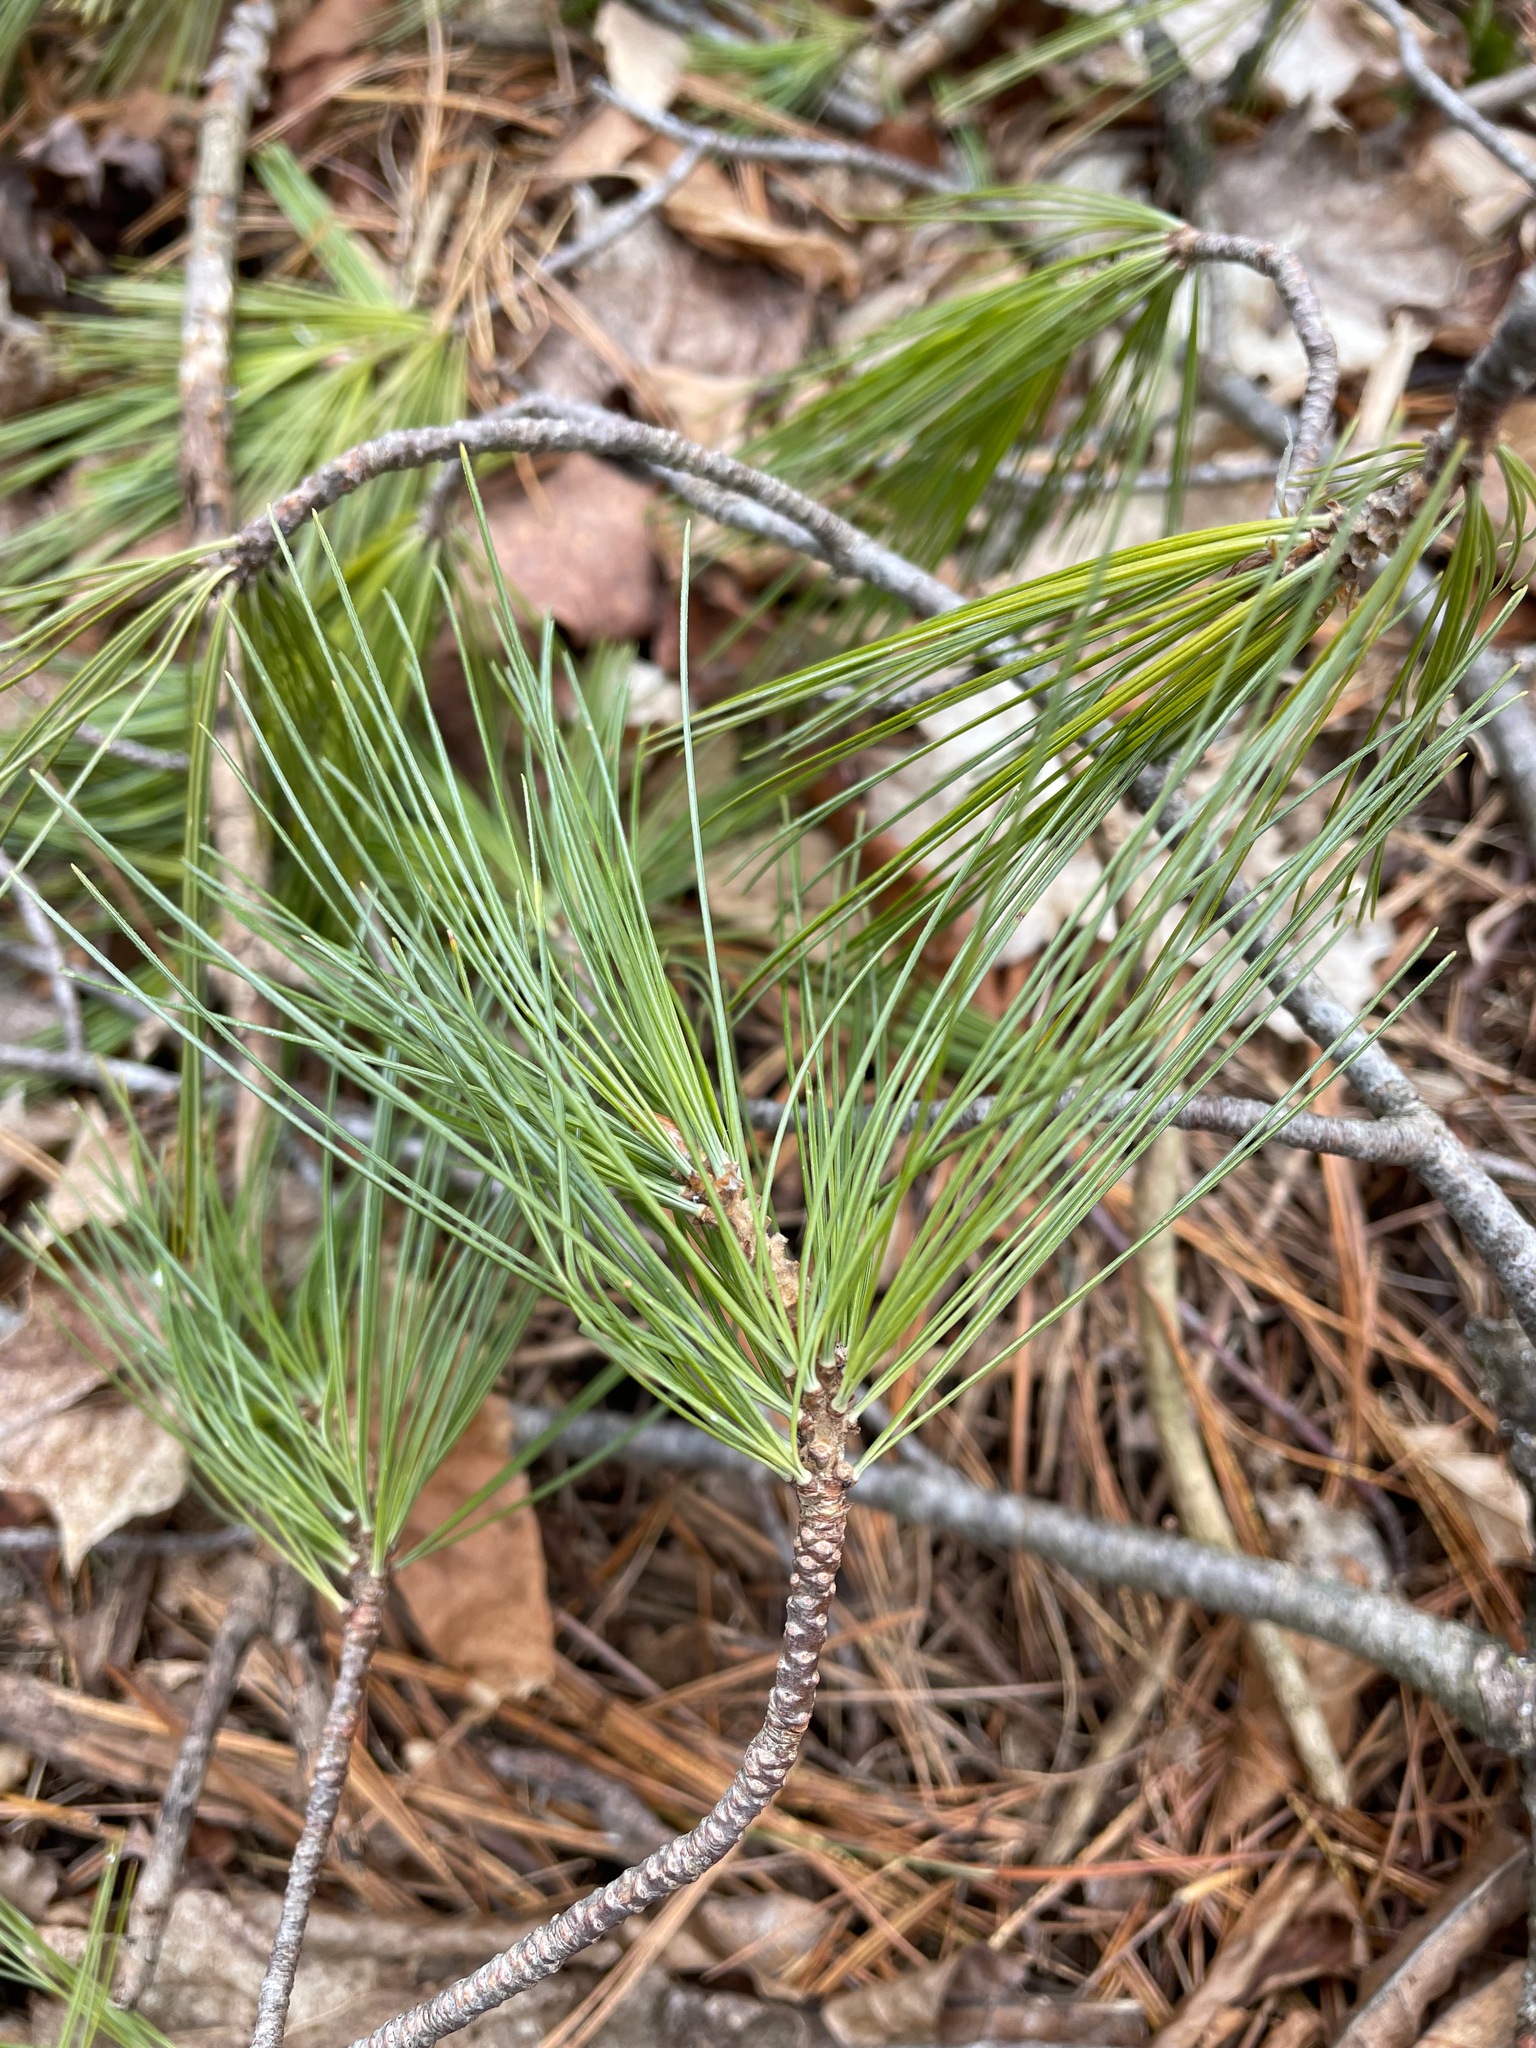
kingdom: Plantae
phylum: Tracheophyta
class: Pinopsida
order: Pinales
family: Pinaceae
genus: Pinus
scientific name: Pinus strobus
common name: Weymouth pine
